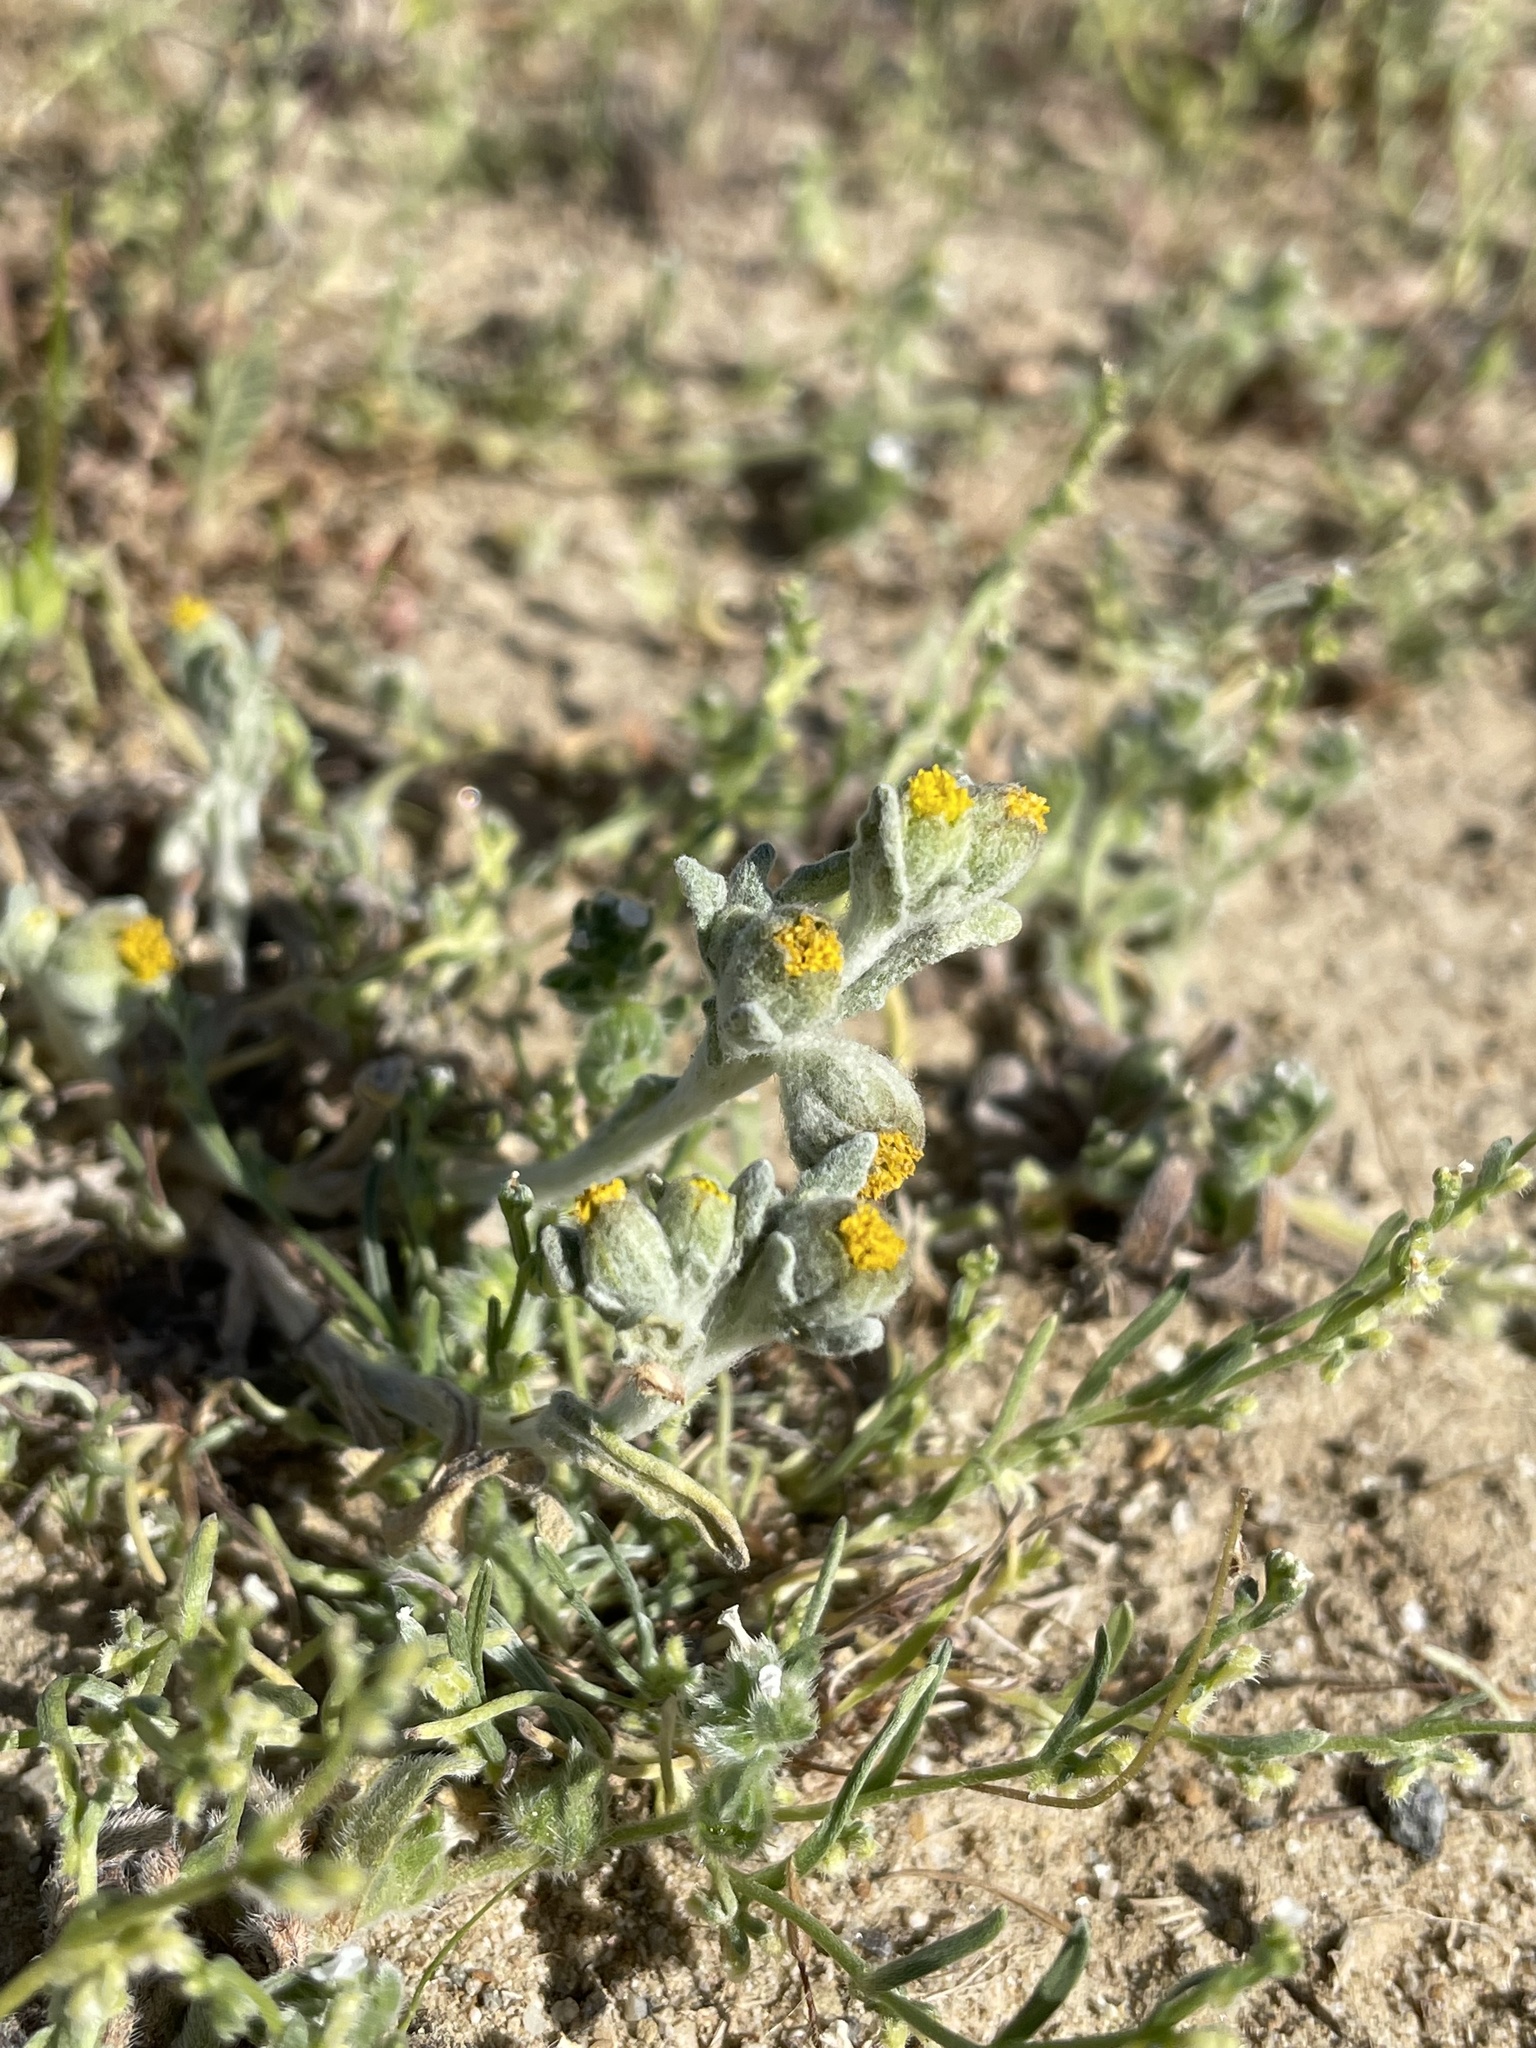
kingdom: Plantae
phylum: Tracheophyta
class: Magnoliopsida
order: Asterales
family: Asteraceae
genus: Monolopia
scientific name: Monolopia congdonii
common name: San joaquin woolly-threads
